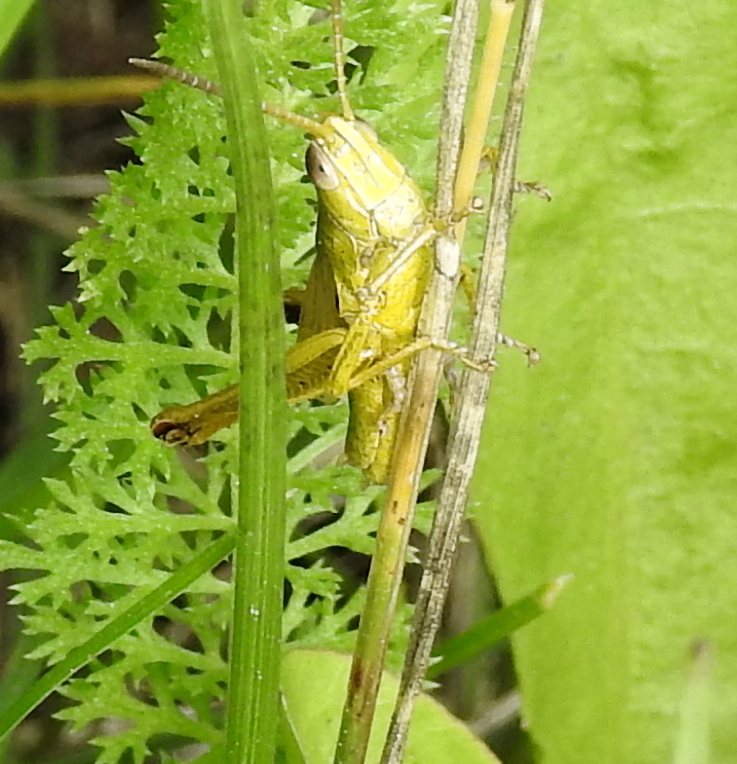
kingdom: Animalia
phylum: Arthropoda
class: Insecta
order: Orthoptera
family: Acrididae
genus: Chrysochraon
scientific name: Chrysochraon dispar
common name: Large gold grasshopper
